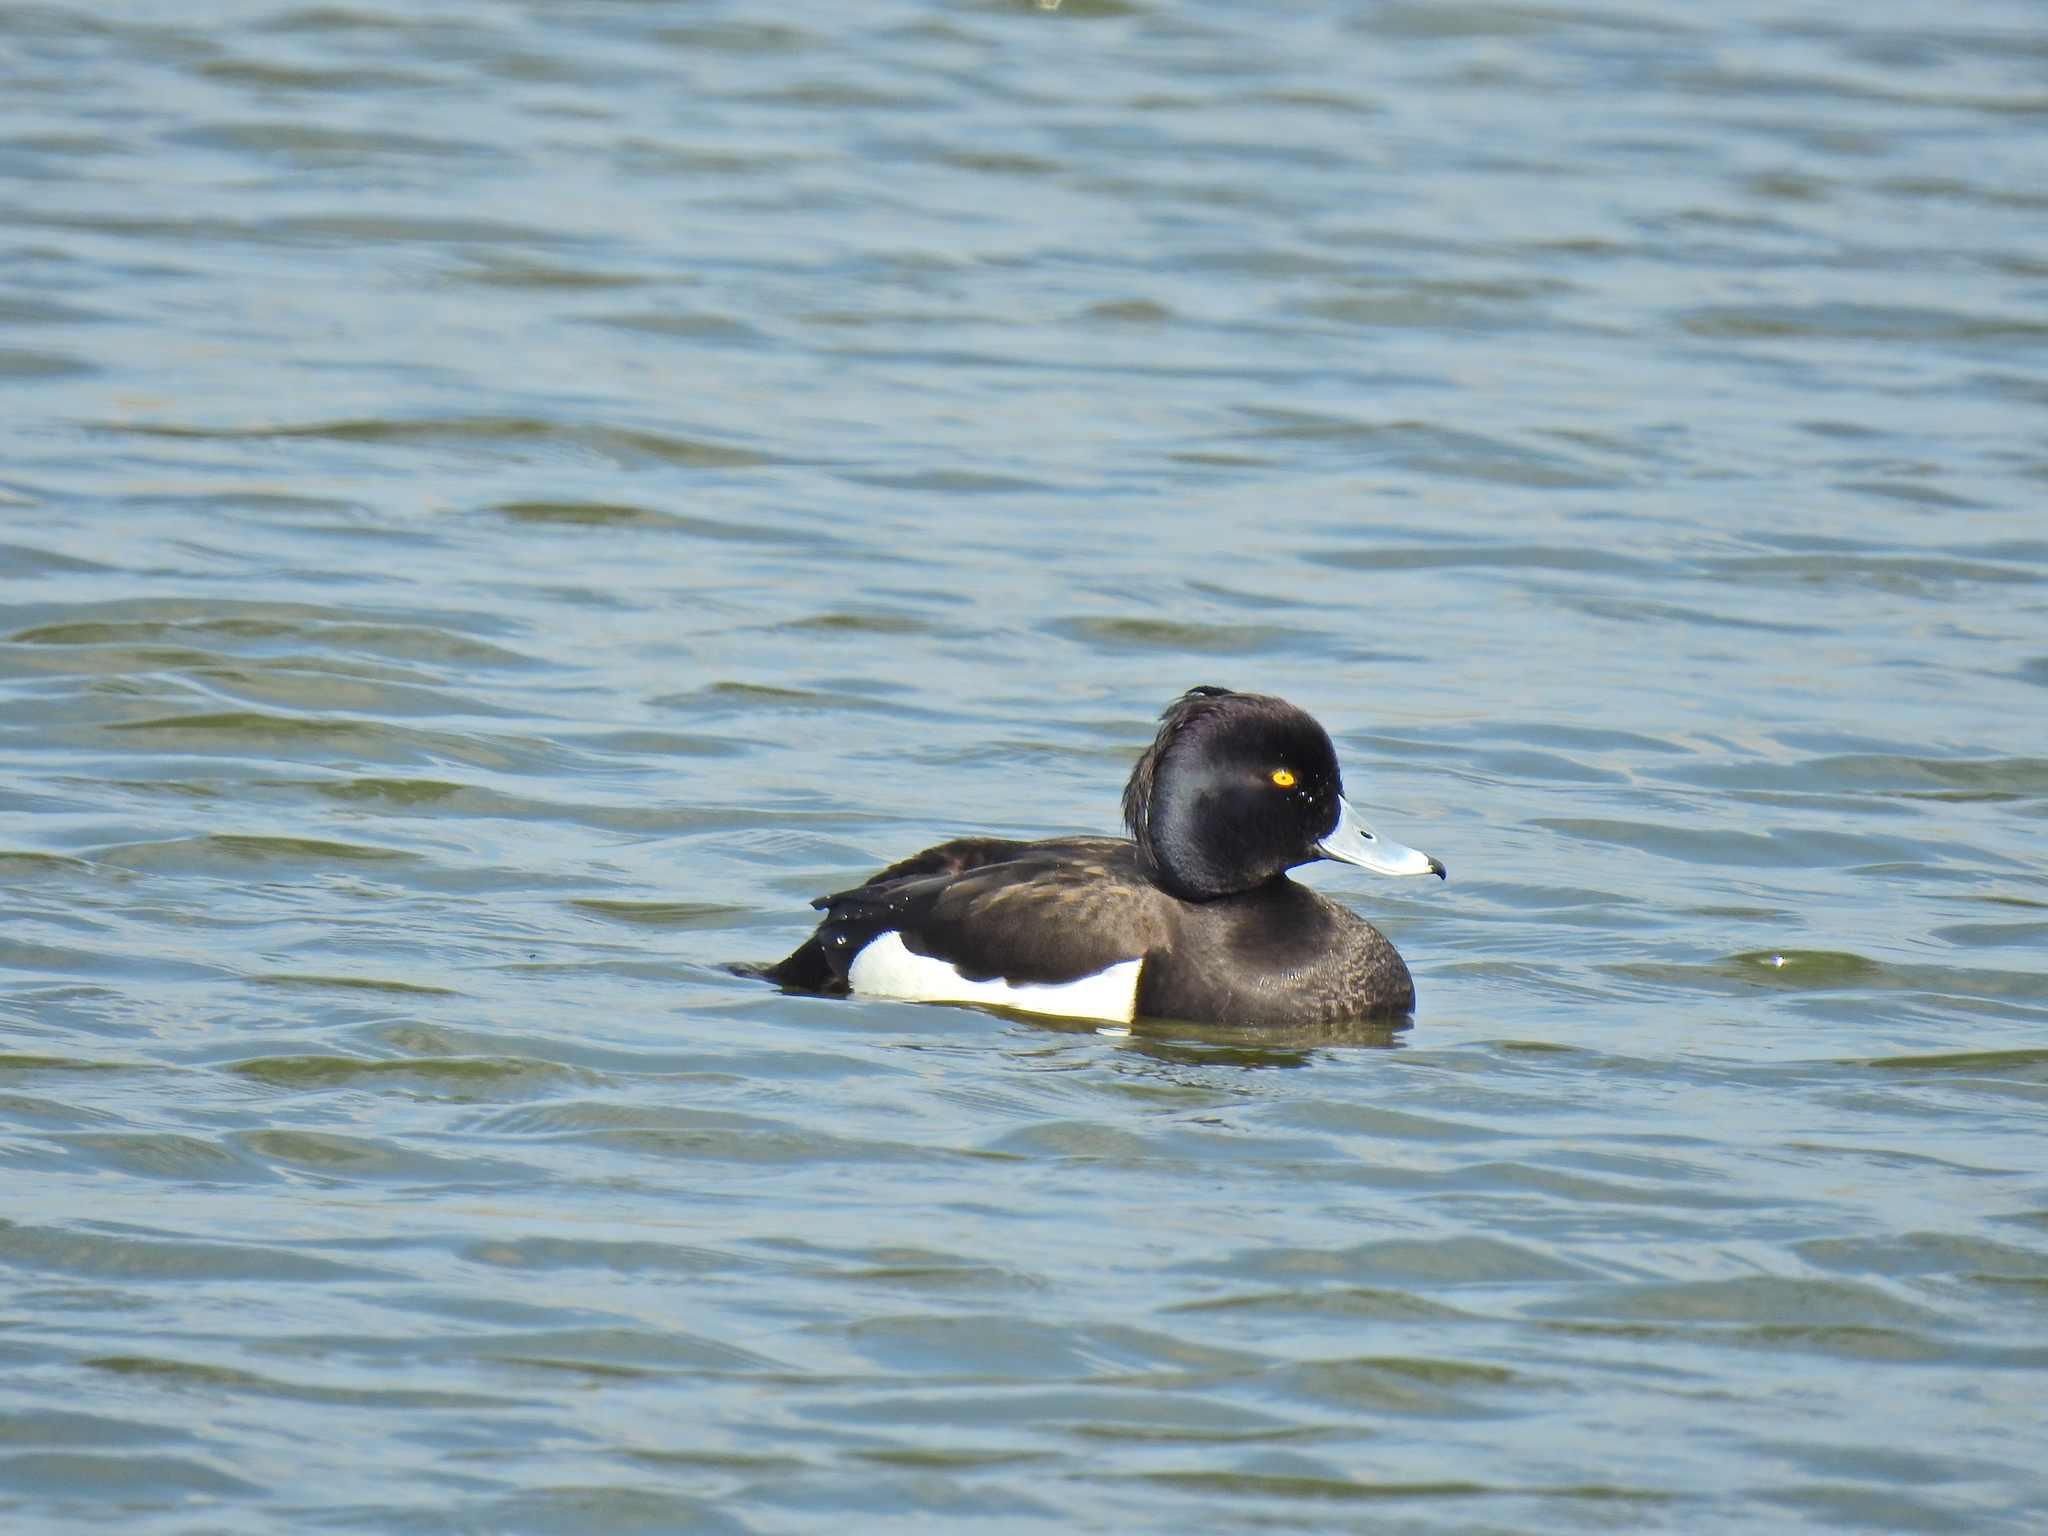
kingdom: Animalia
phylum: Chordata
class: Aves
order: Anseriformes
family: Anatidae
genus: Aythya
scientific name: Aythya fuligula
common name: Tufted duck
